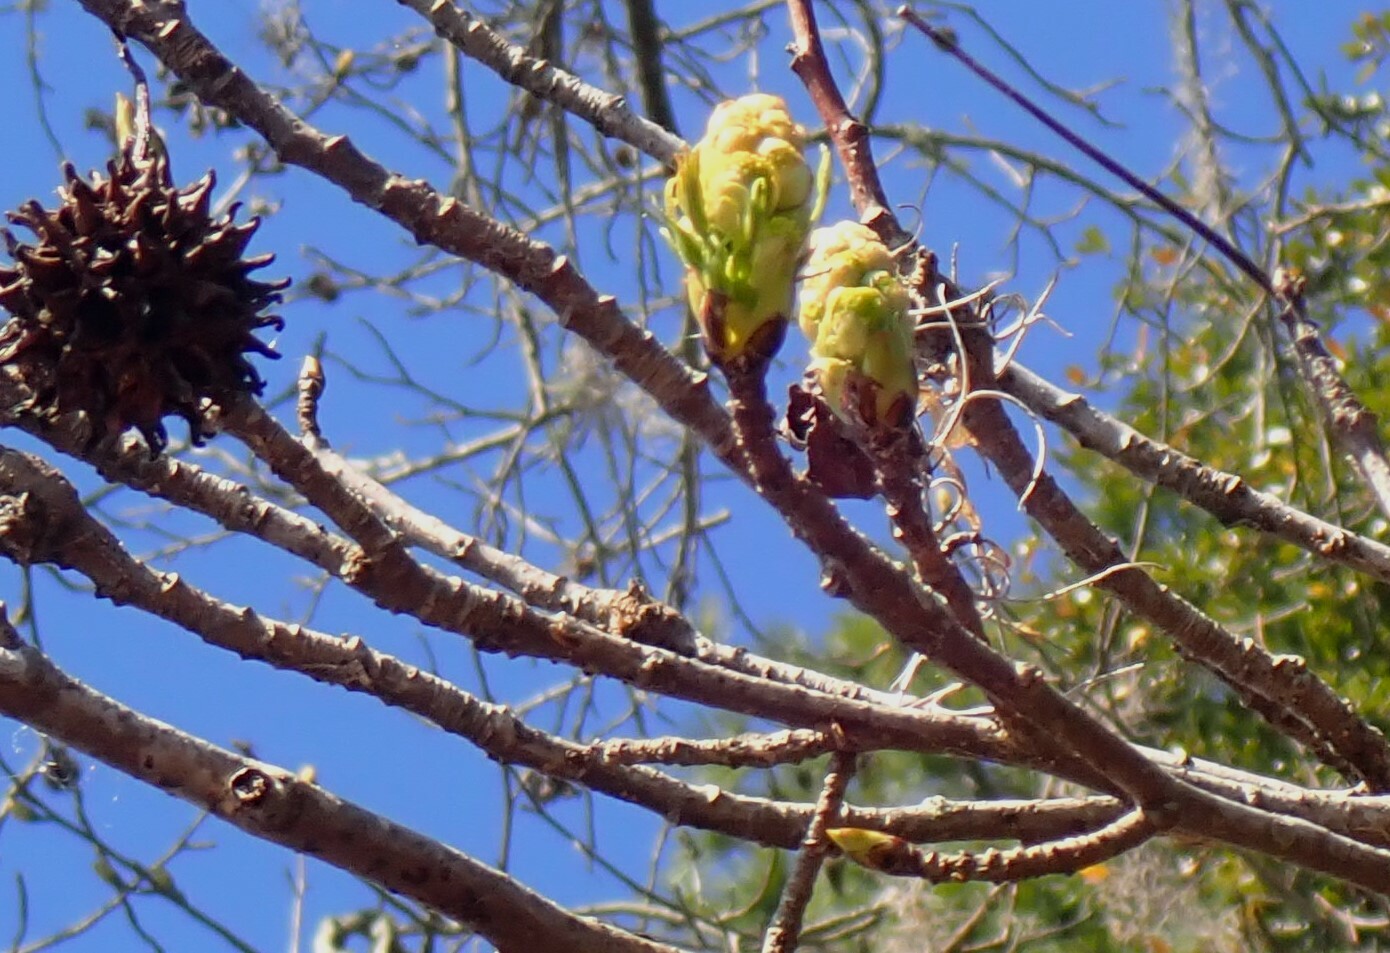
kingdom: Plantae
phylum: Tracheophyta
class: Magnoliopsida
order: Saxifragales
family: Altingiaceae
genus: Liquidambar
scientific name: Liquidambar styraciflua
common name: Sweet gum
